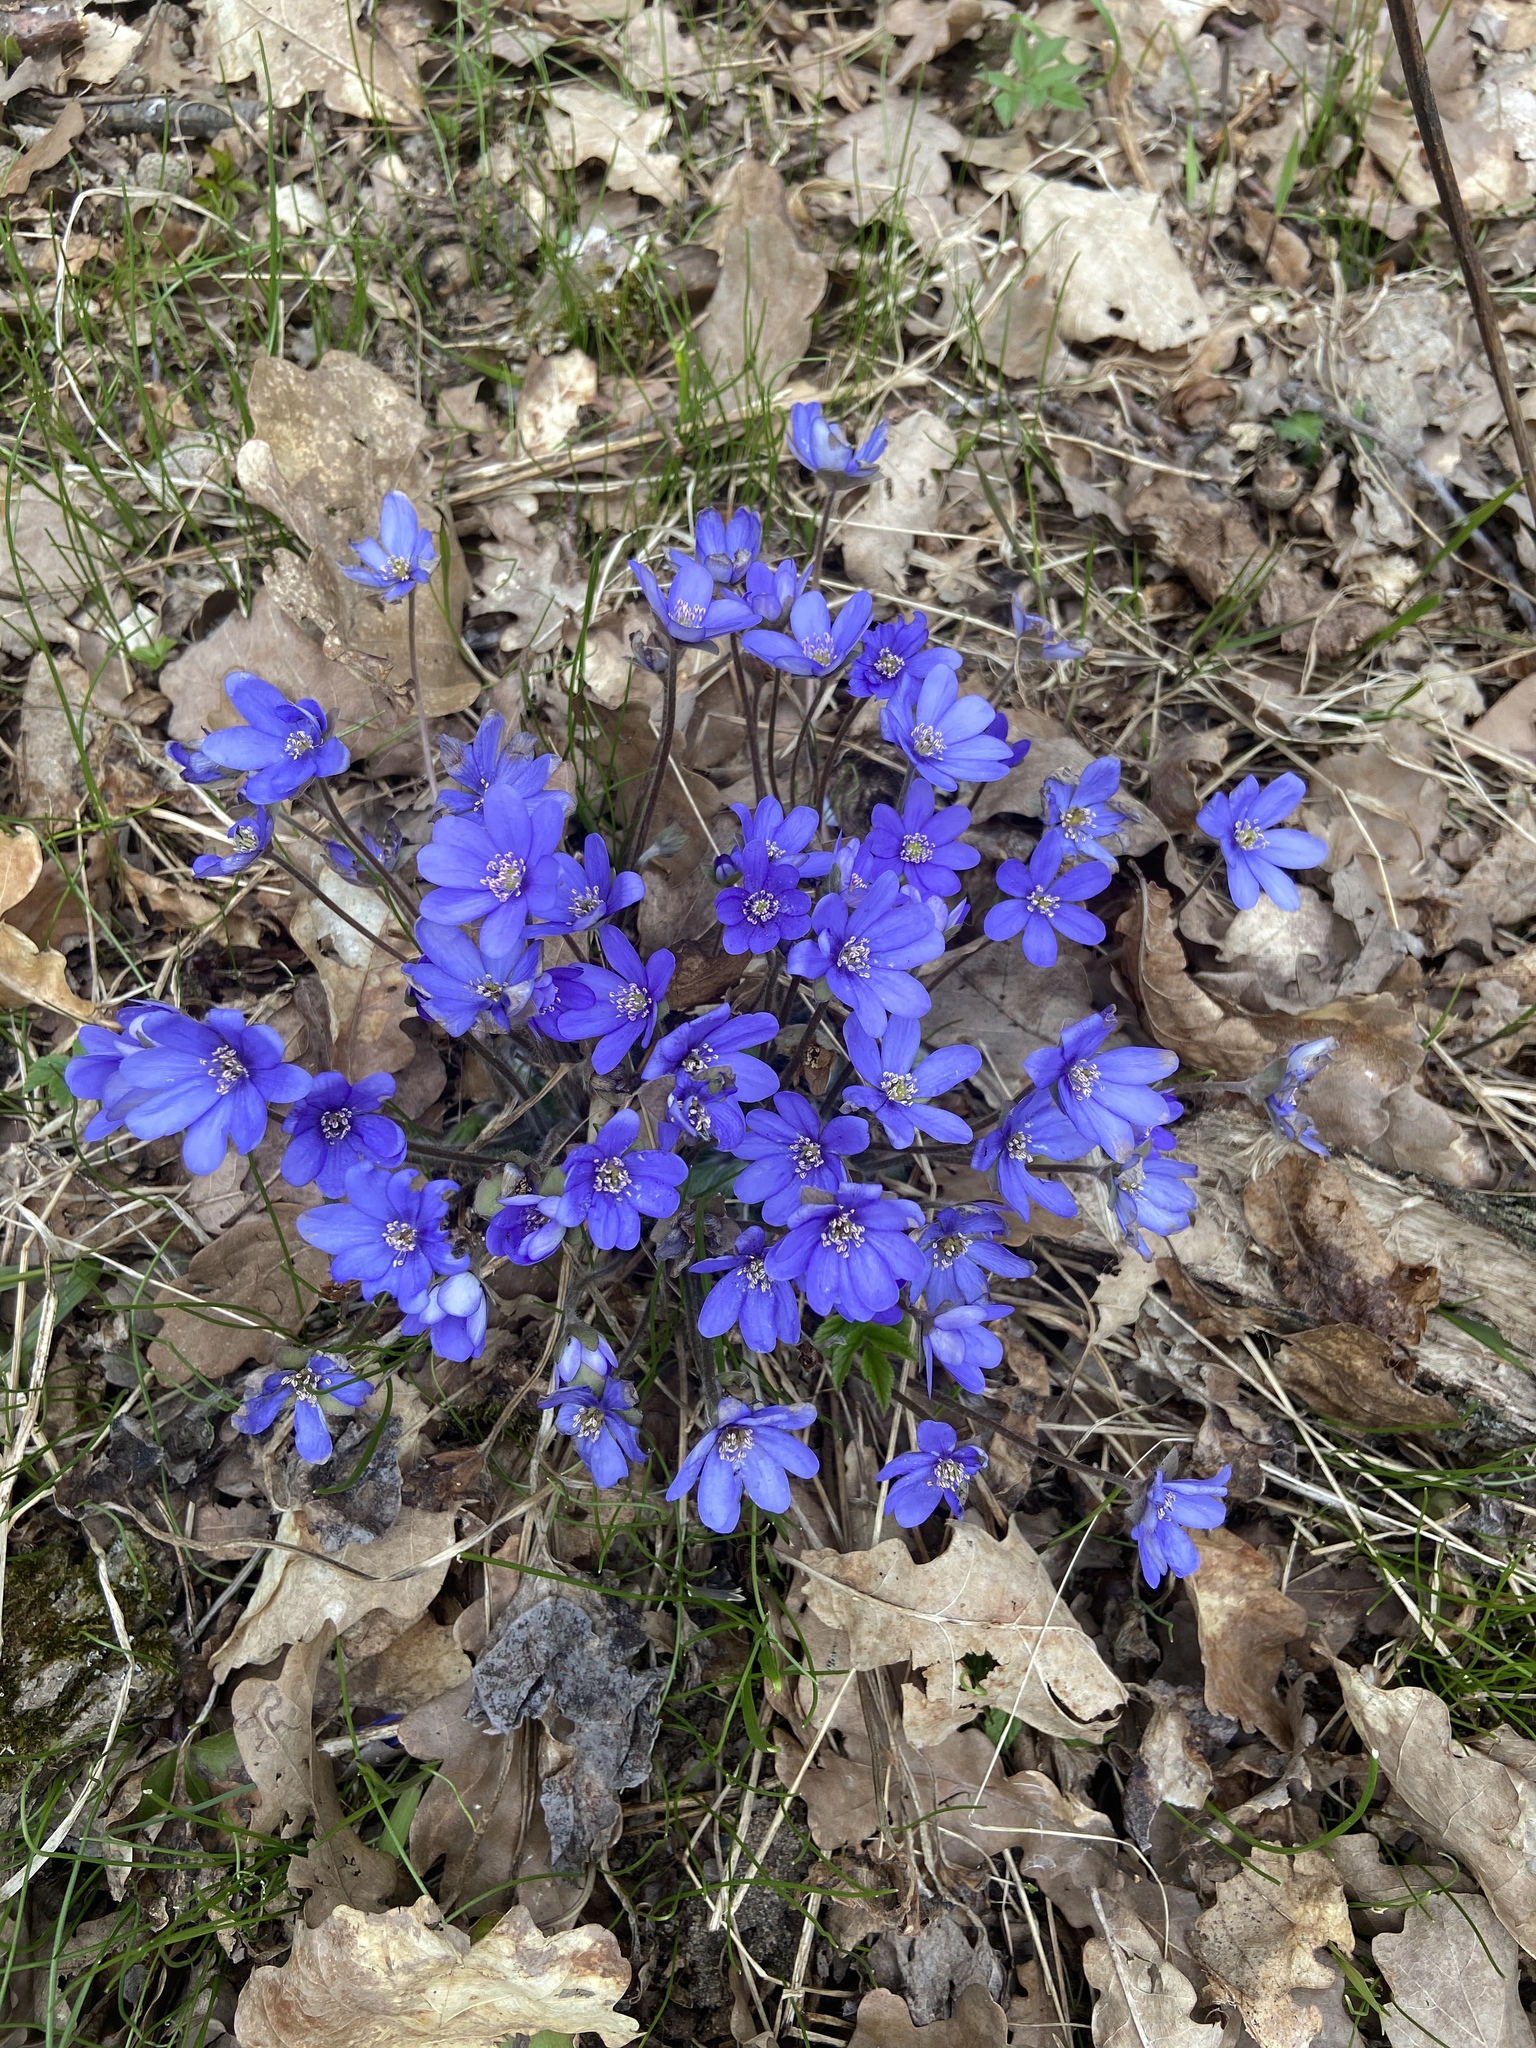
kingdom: Plantae
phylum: Tracheophyta
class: Magnoliopsida
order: Ranunculales
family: Ranunculaceae
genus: Hepatica
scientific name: Hepatica nobilis
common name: Liverleaf
